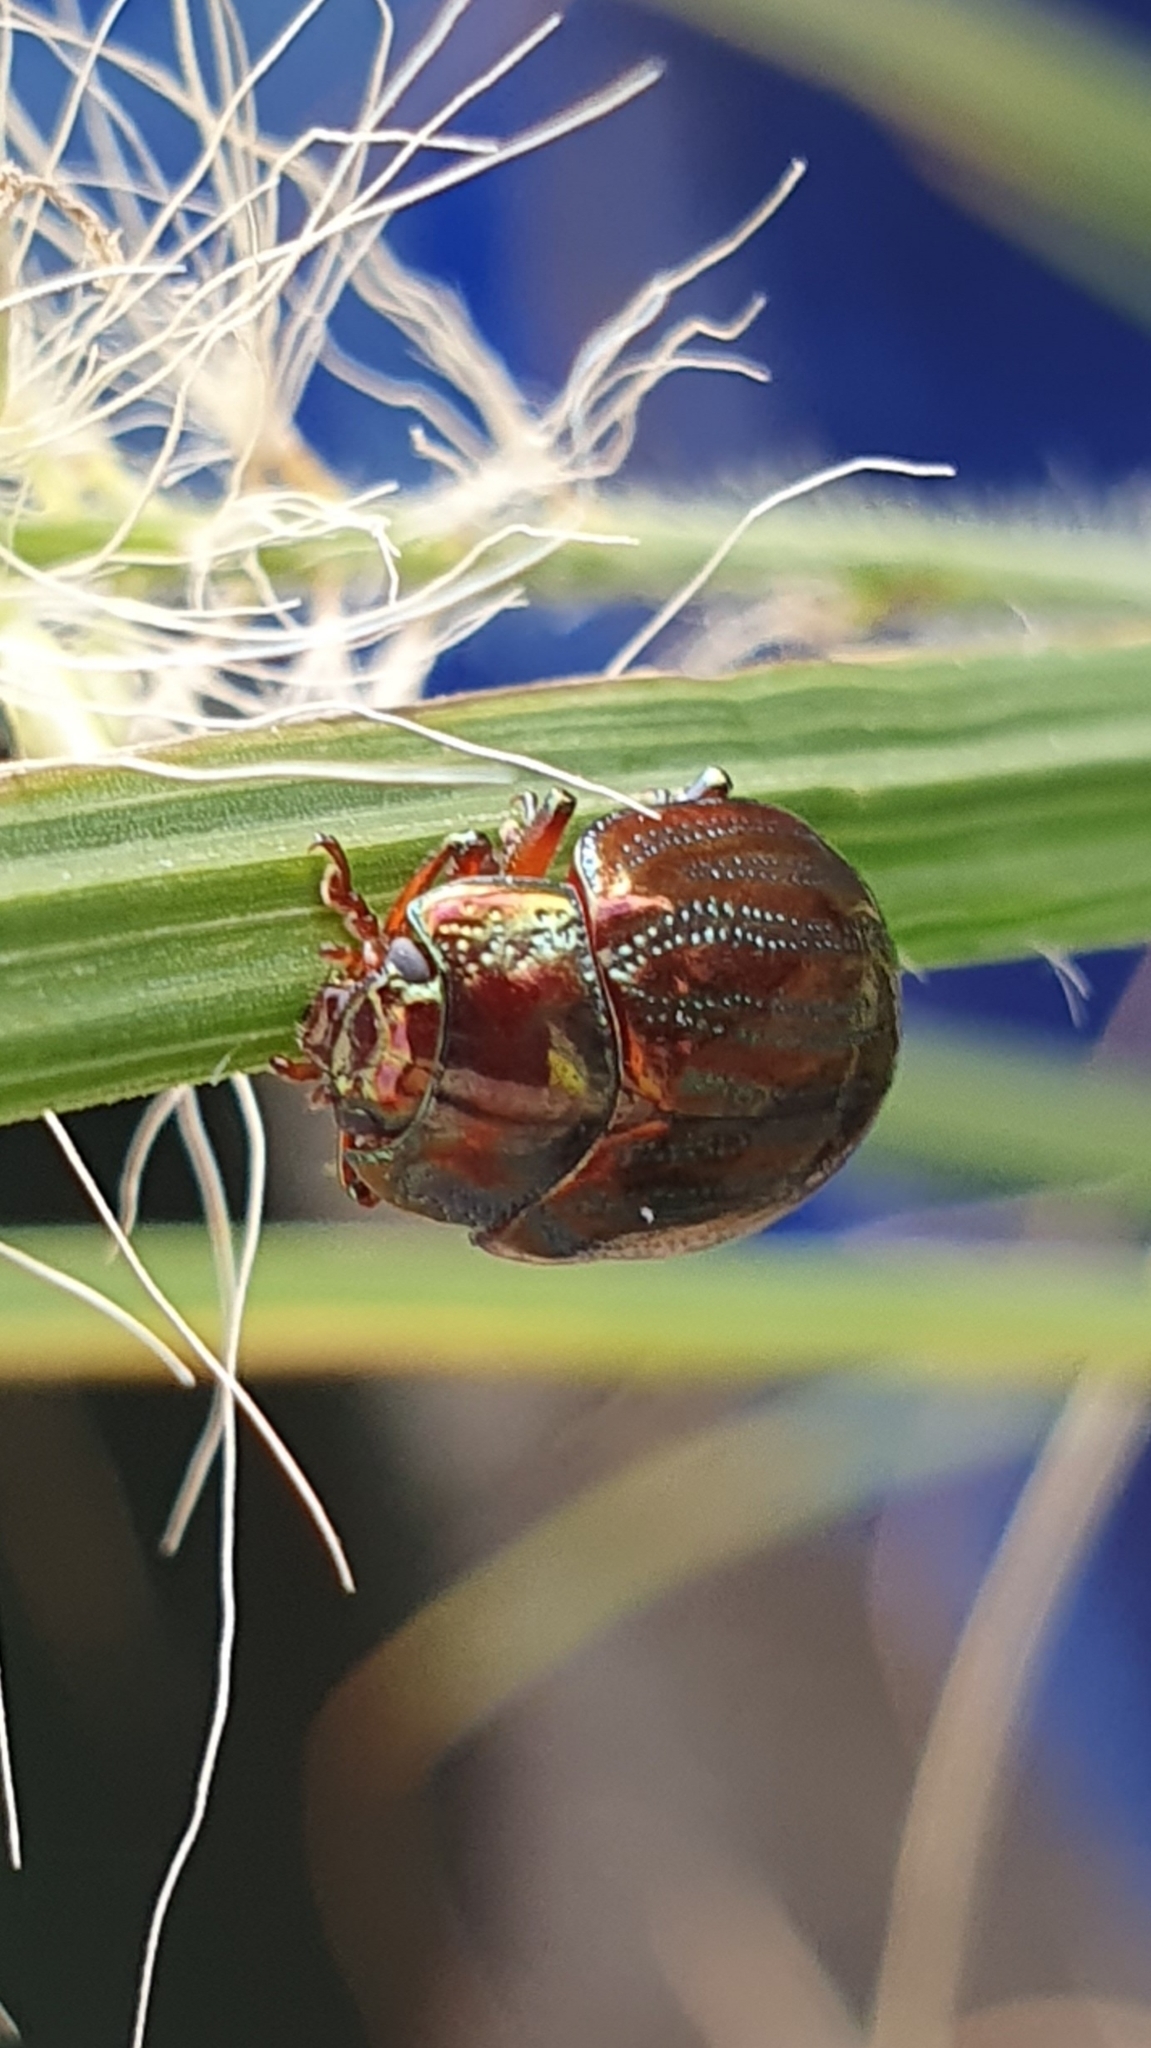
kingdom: Animalia
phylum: Arthropoda
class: Insecta
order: Coleoptera
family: Chrysomelidae
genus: Chrysolina
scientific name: Chrysolina americana
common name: Rosemary beetle
